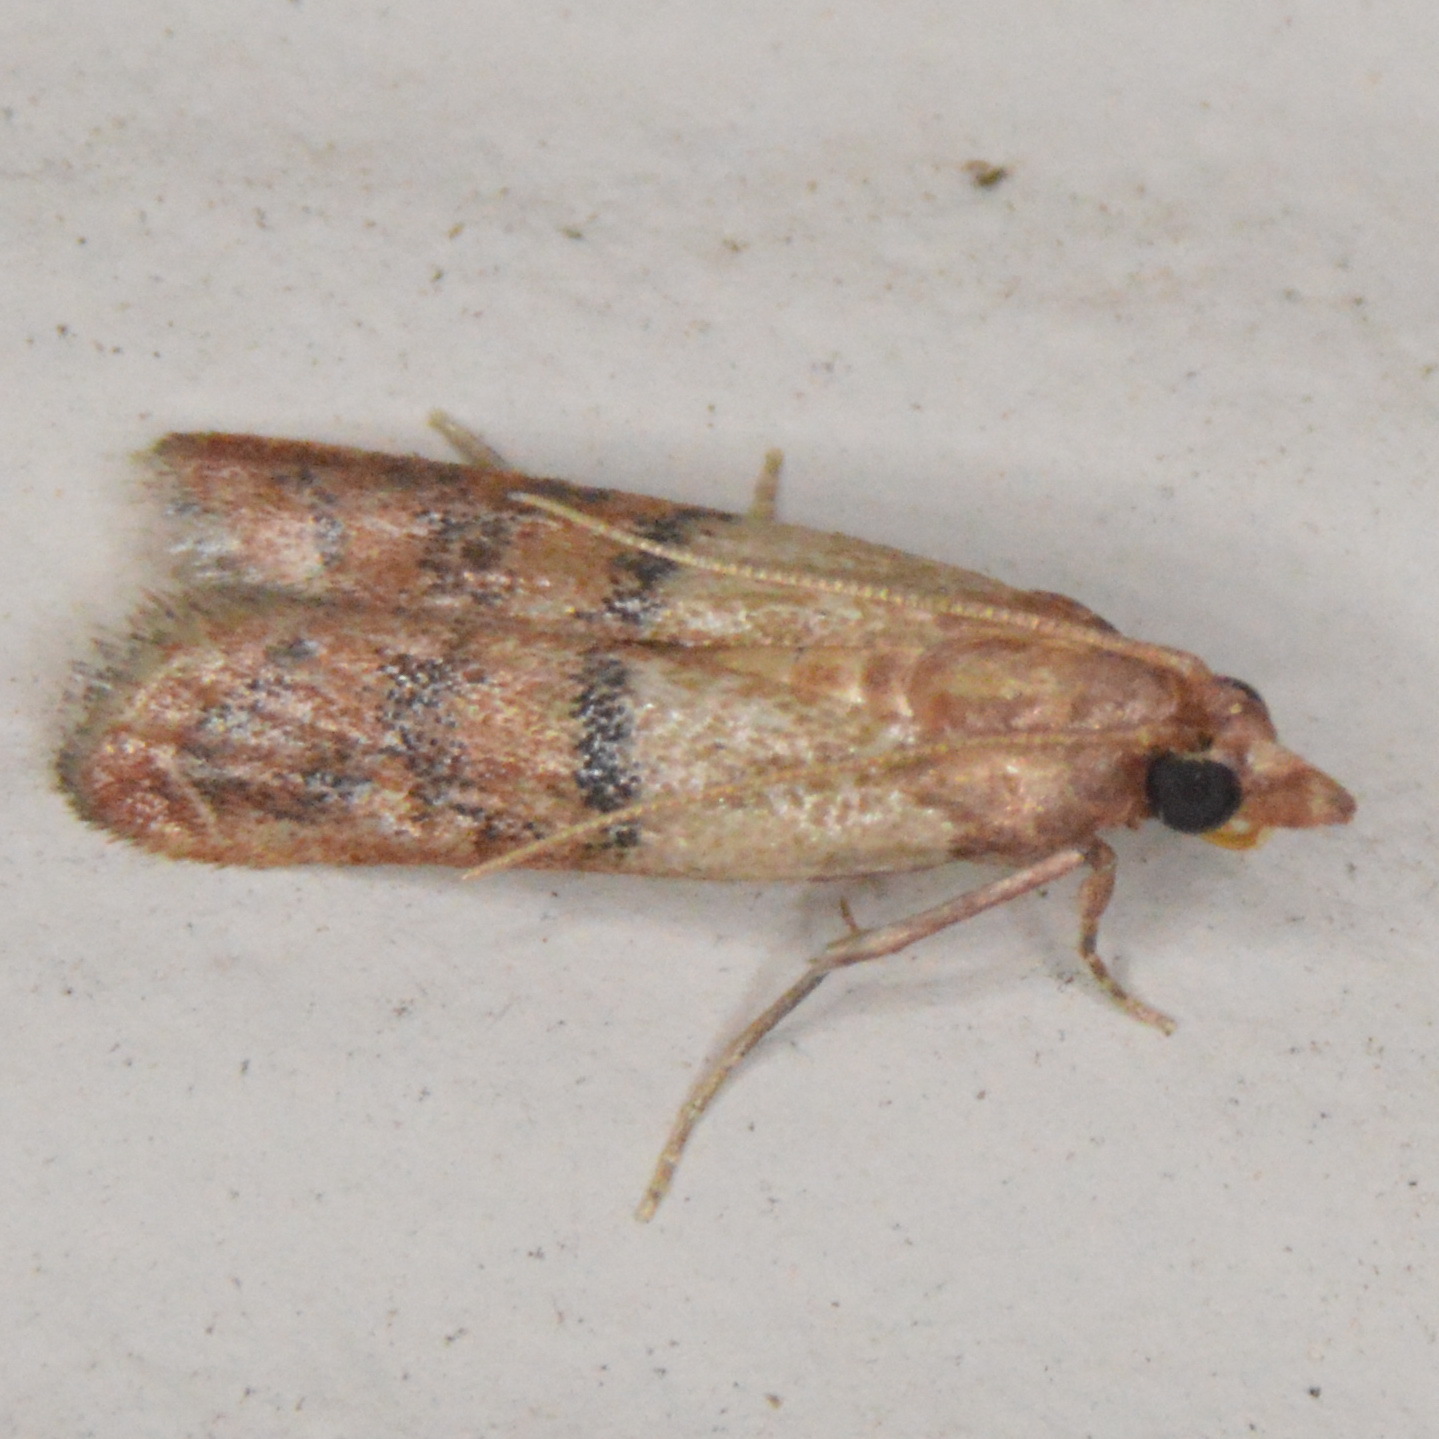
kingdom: Animalia
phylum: Arthropoda
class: Insecta
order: Lepidoptera
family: Pyralidae
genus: Plodia
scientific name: Plodia interpunctella
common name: Indian meal moth
